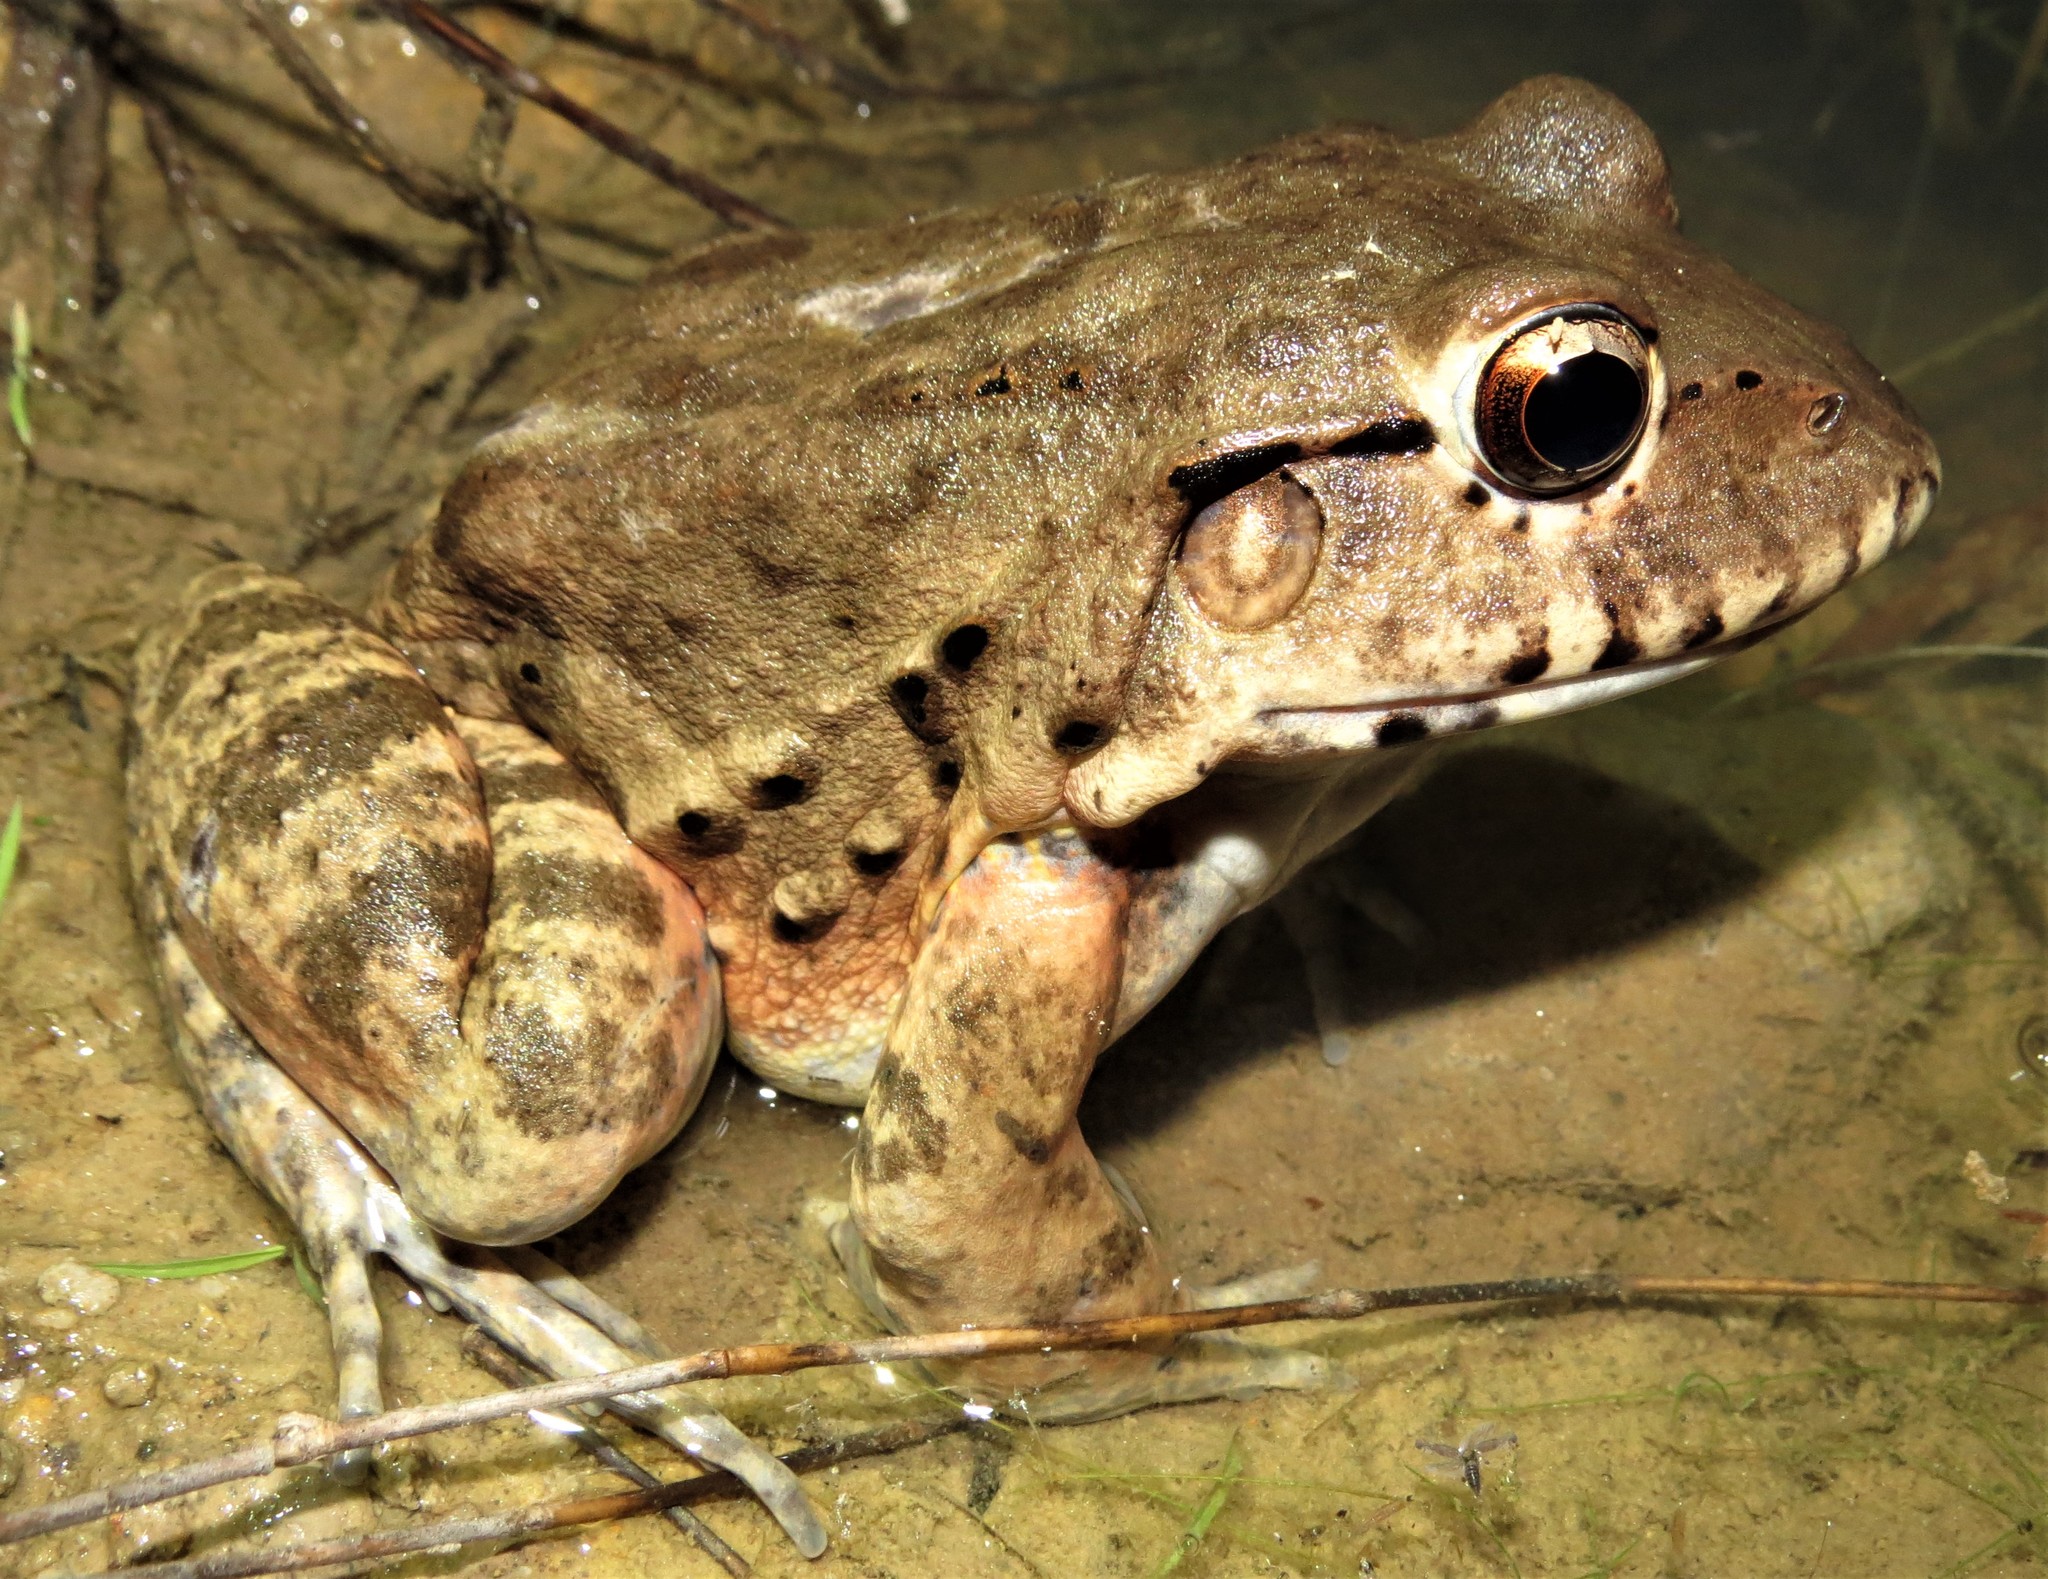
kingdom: Animalia
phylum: Chordata
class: Amphibia
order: Anura
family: Leptodactylidae
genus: Leptodactylus
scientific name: Leptodactylus labyrinthicus
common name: Labyrinth frog
